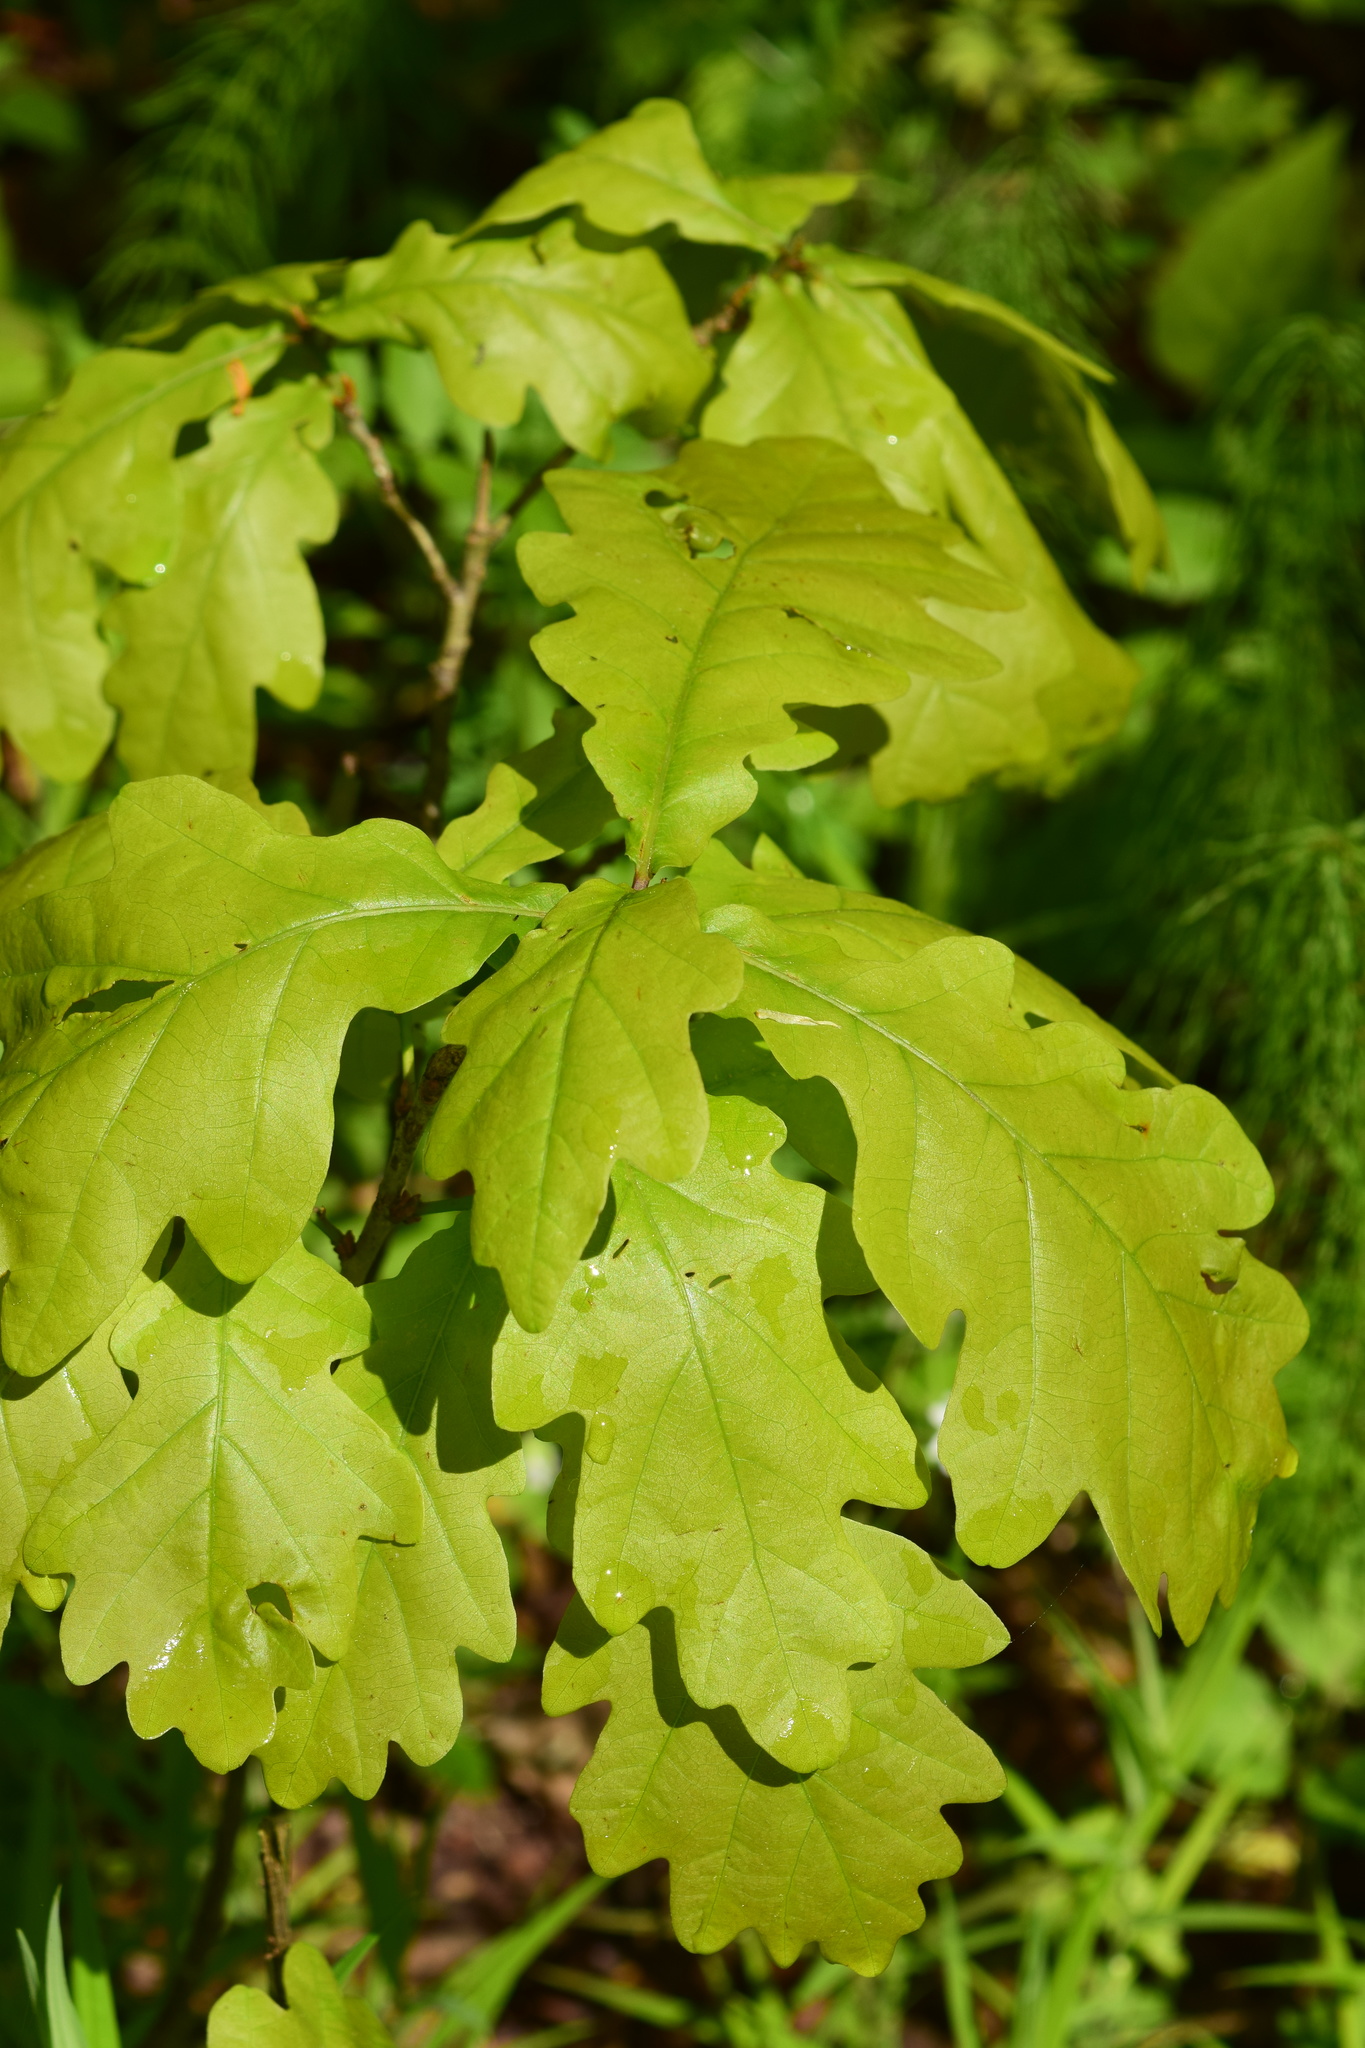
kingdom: Plantae
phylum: Tracheophyta
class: Magnoliopsida
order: Fagales
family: Fagaceae
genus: Quercus
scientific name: Quercus robur
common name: Pedunculate oak
